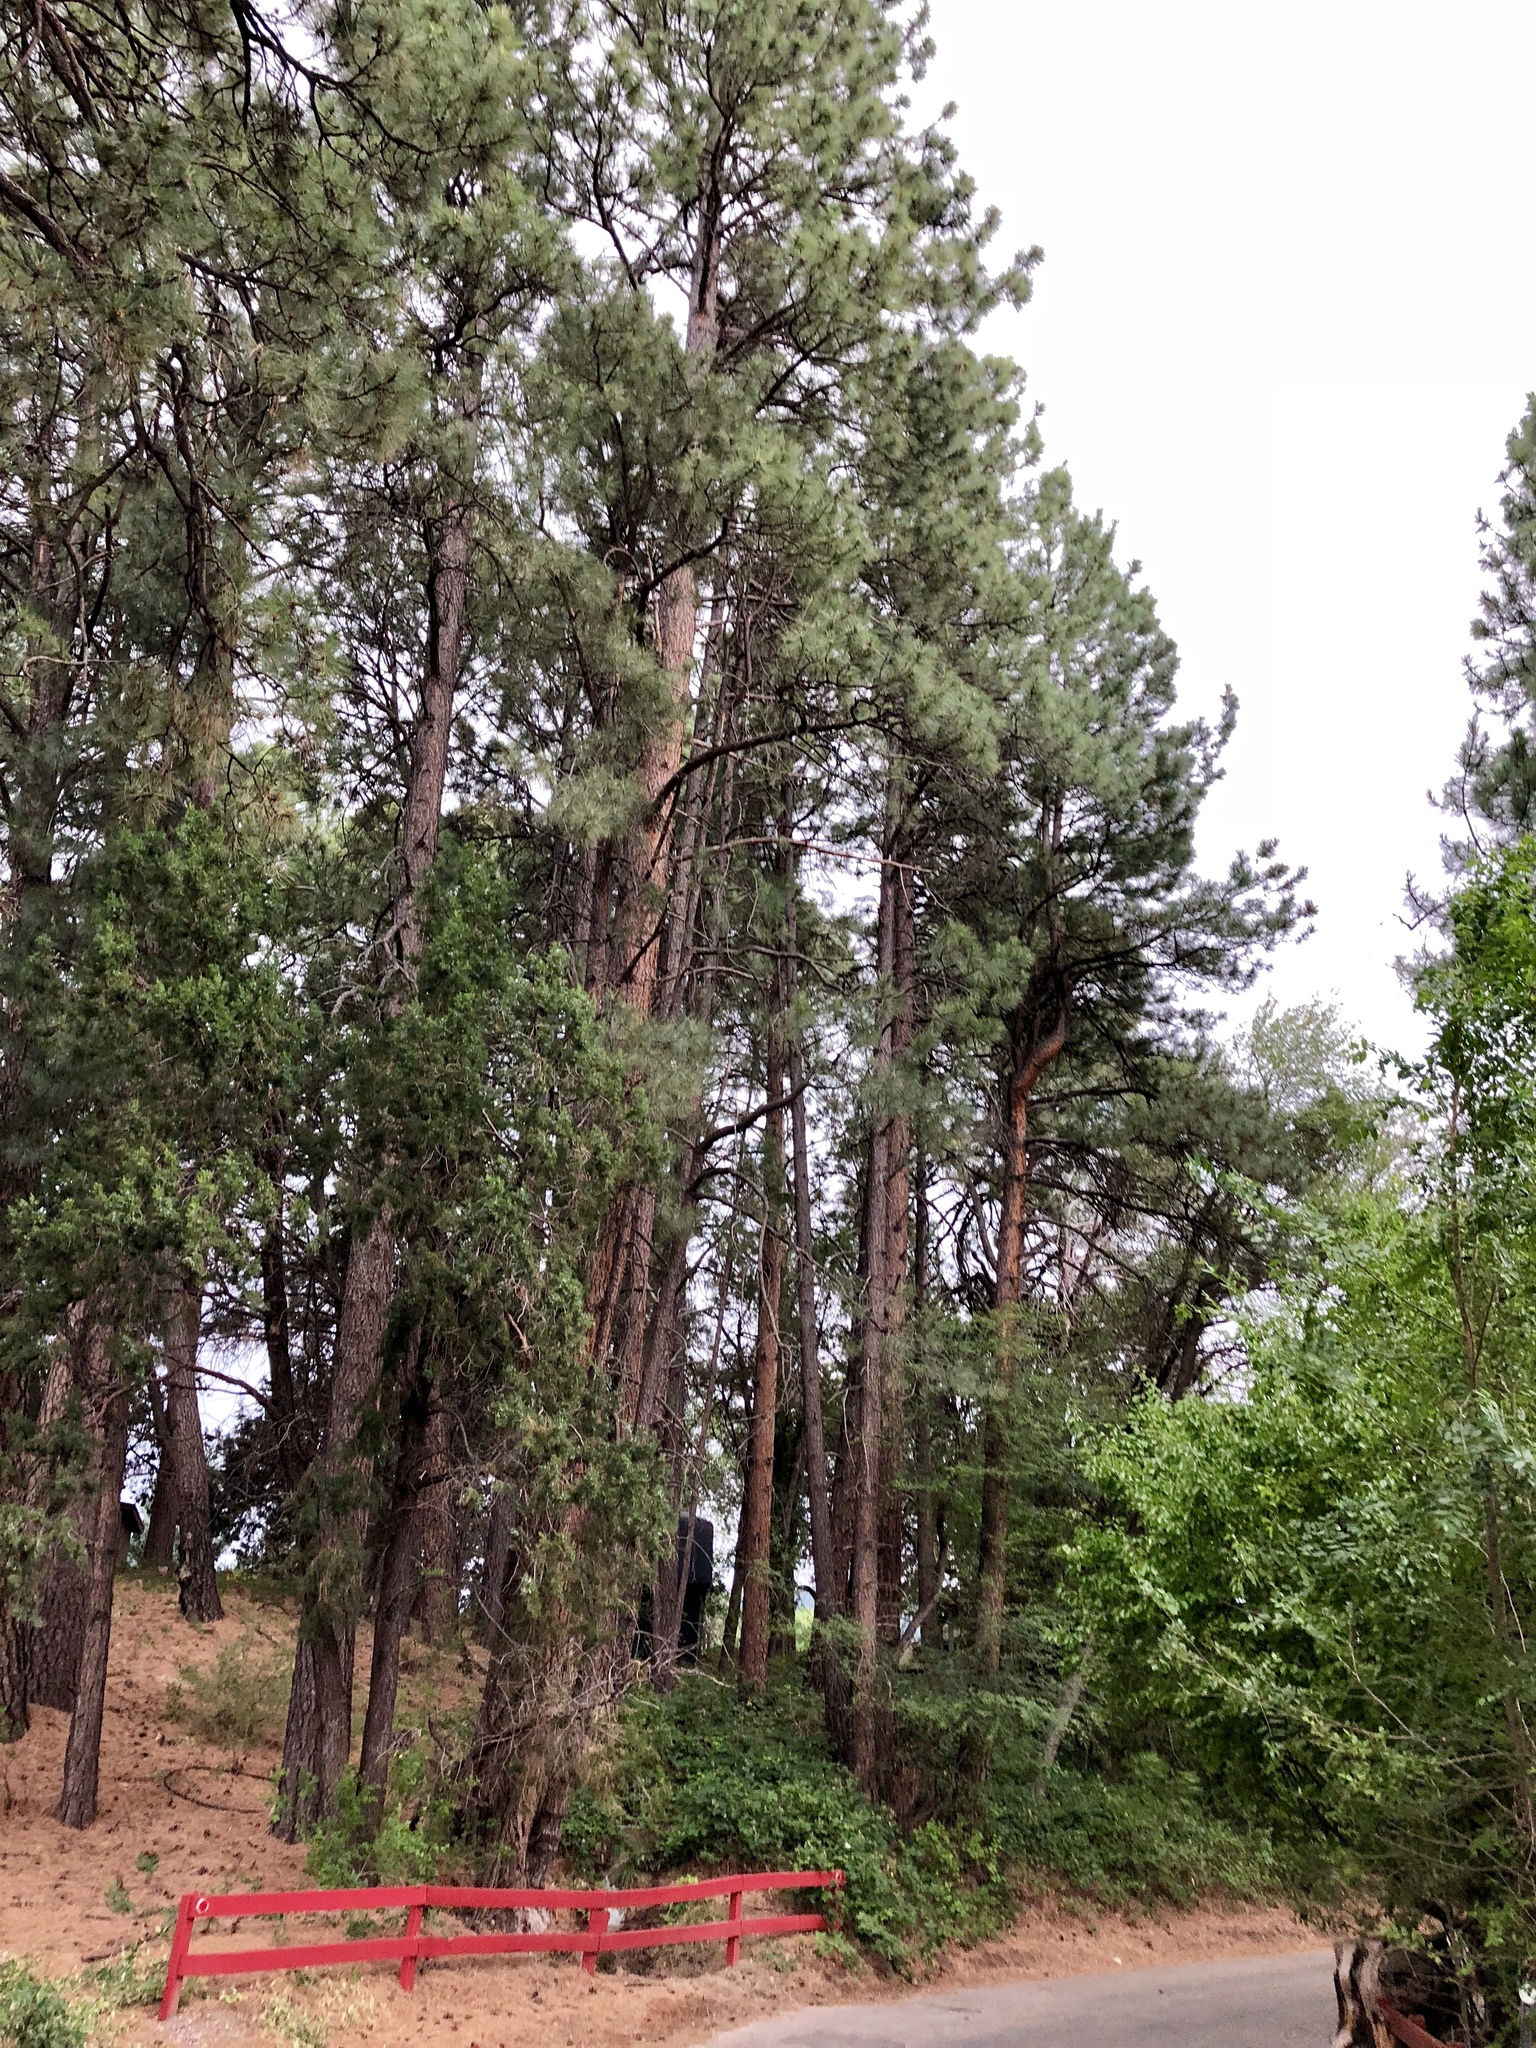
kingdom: Plantae
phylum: Tracheophyta
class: Pinopsida
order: Pinales
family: Pinaceae
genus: Pinus
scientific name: Pinus ponderosa
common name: Western yellow-pine
